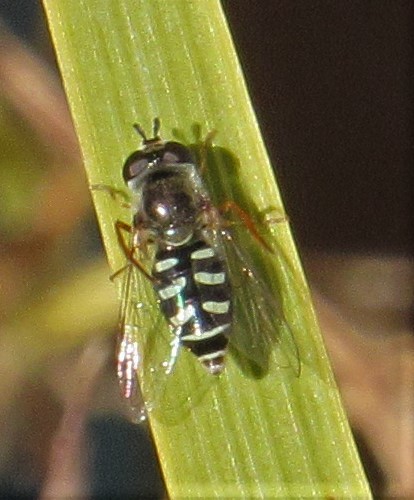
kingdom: Animalia
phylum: Arthropoda
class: Insecta
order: Diptera
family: Syrphidae
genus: Eupeodes
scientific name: Eupeodes volucris
